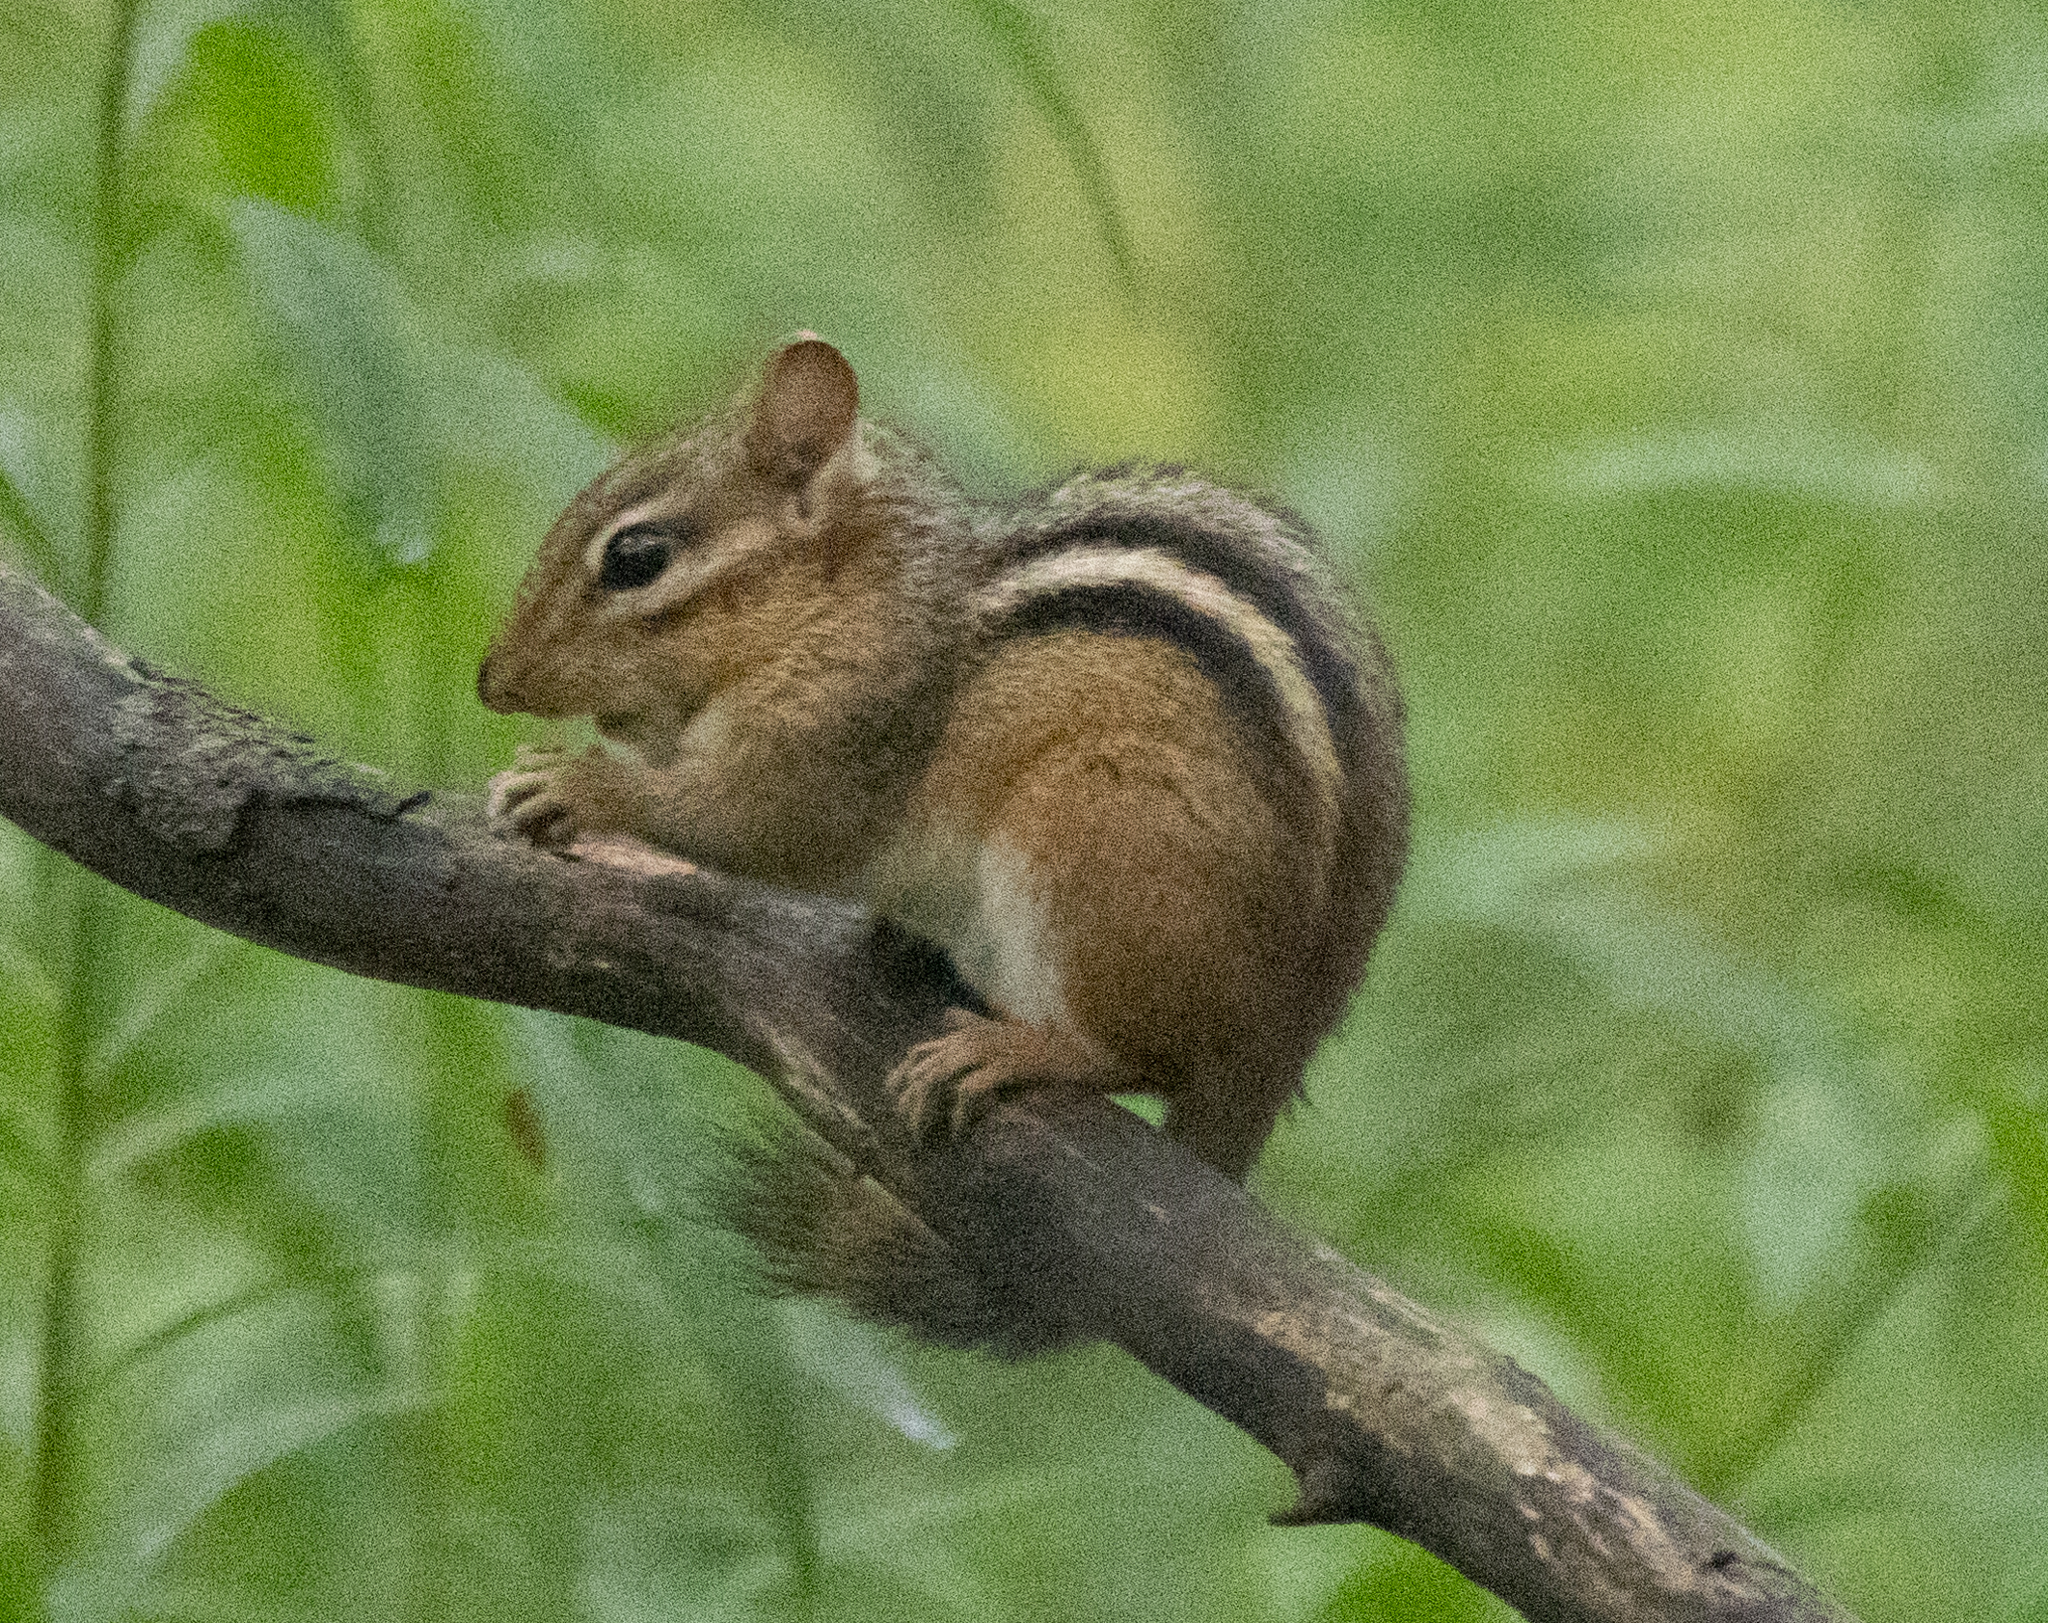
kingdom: Animalia
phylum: Chordata
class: Mammalia
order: Rodentia
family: Sciuridae
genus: Tamias
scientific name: Tamias striatus
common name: Eastern chipmunk
